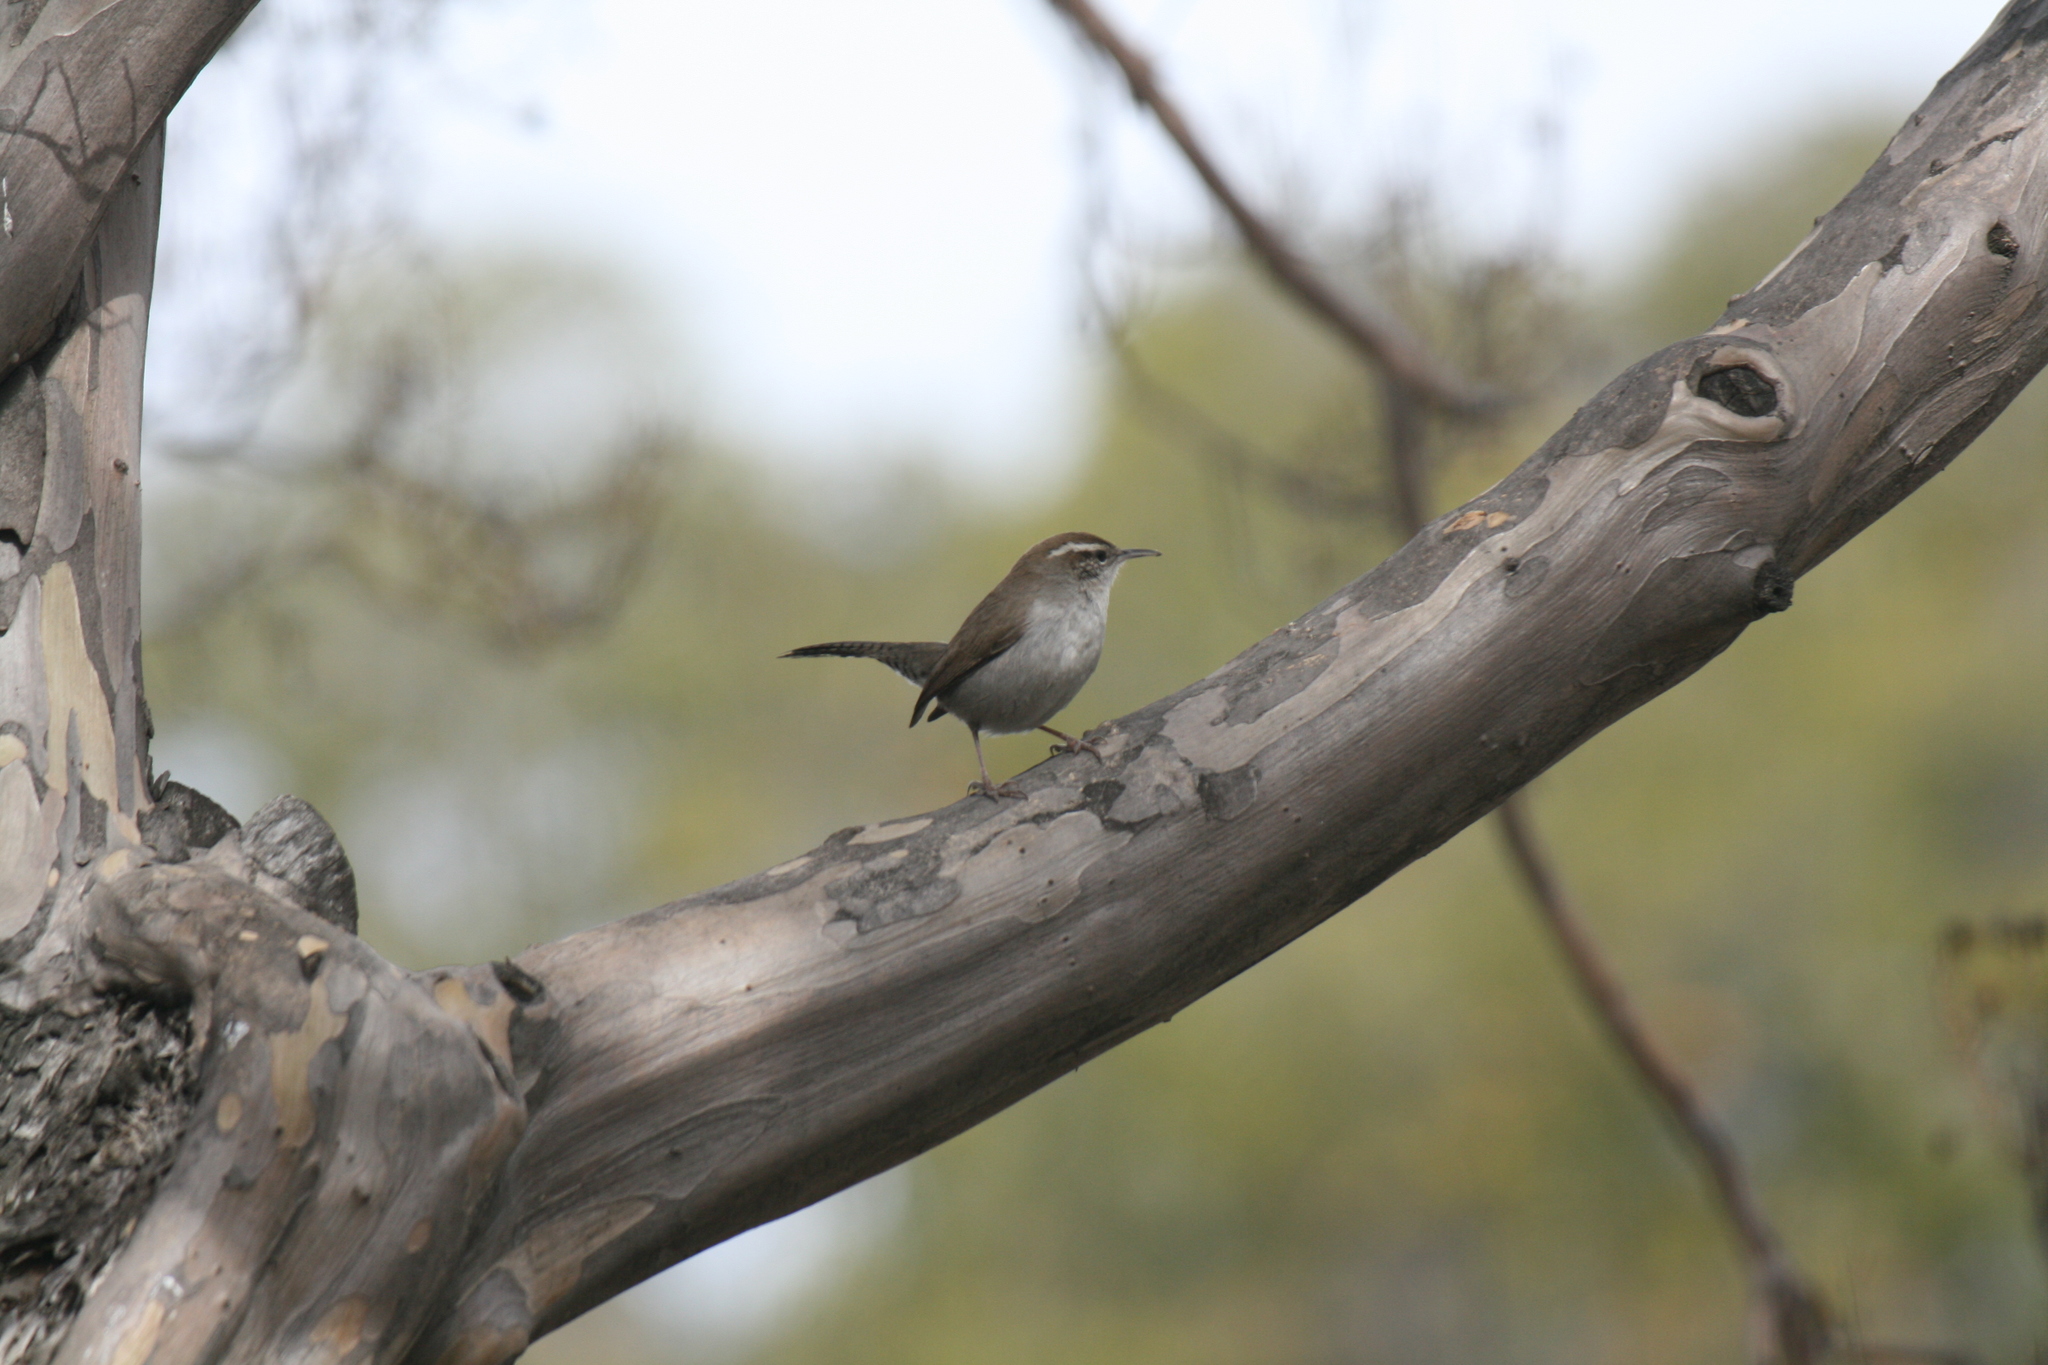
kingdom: Animalia
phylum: Chordata
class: Aves
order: Passeriformes
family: Troglodytidae
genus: Thryomanes
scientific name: Thryomanes bewickii
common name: Bewick's wren
